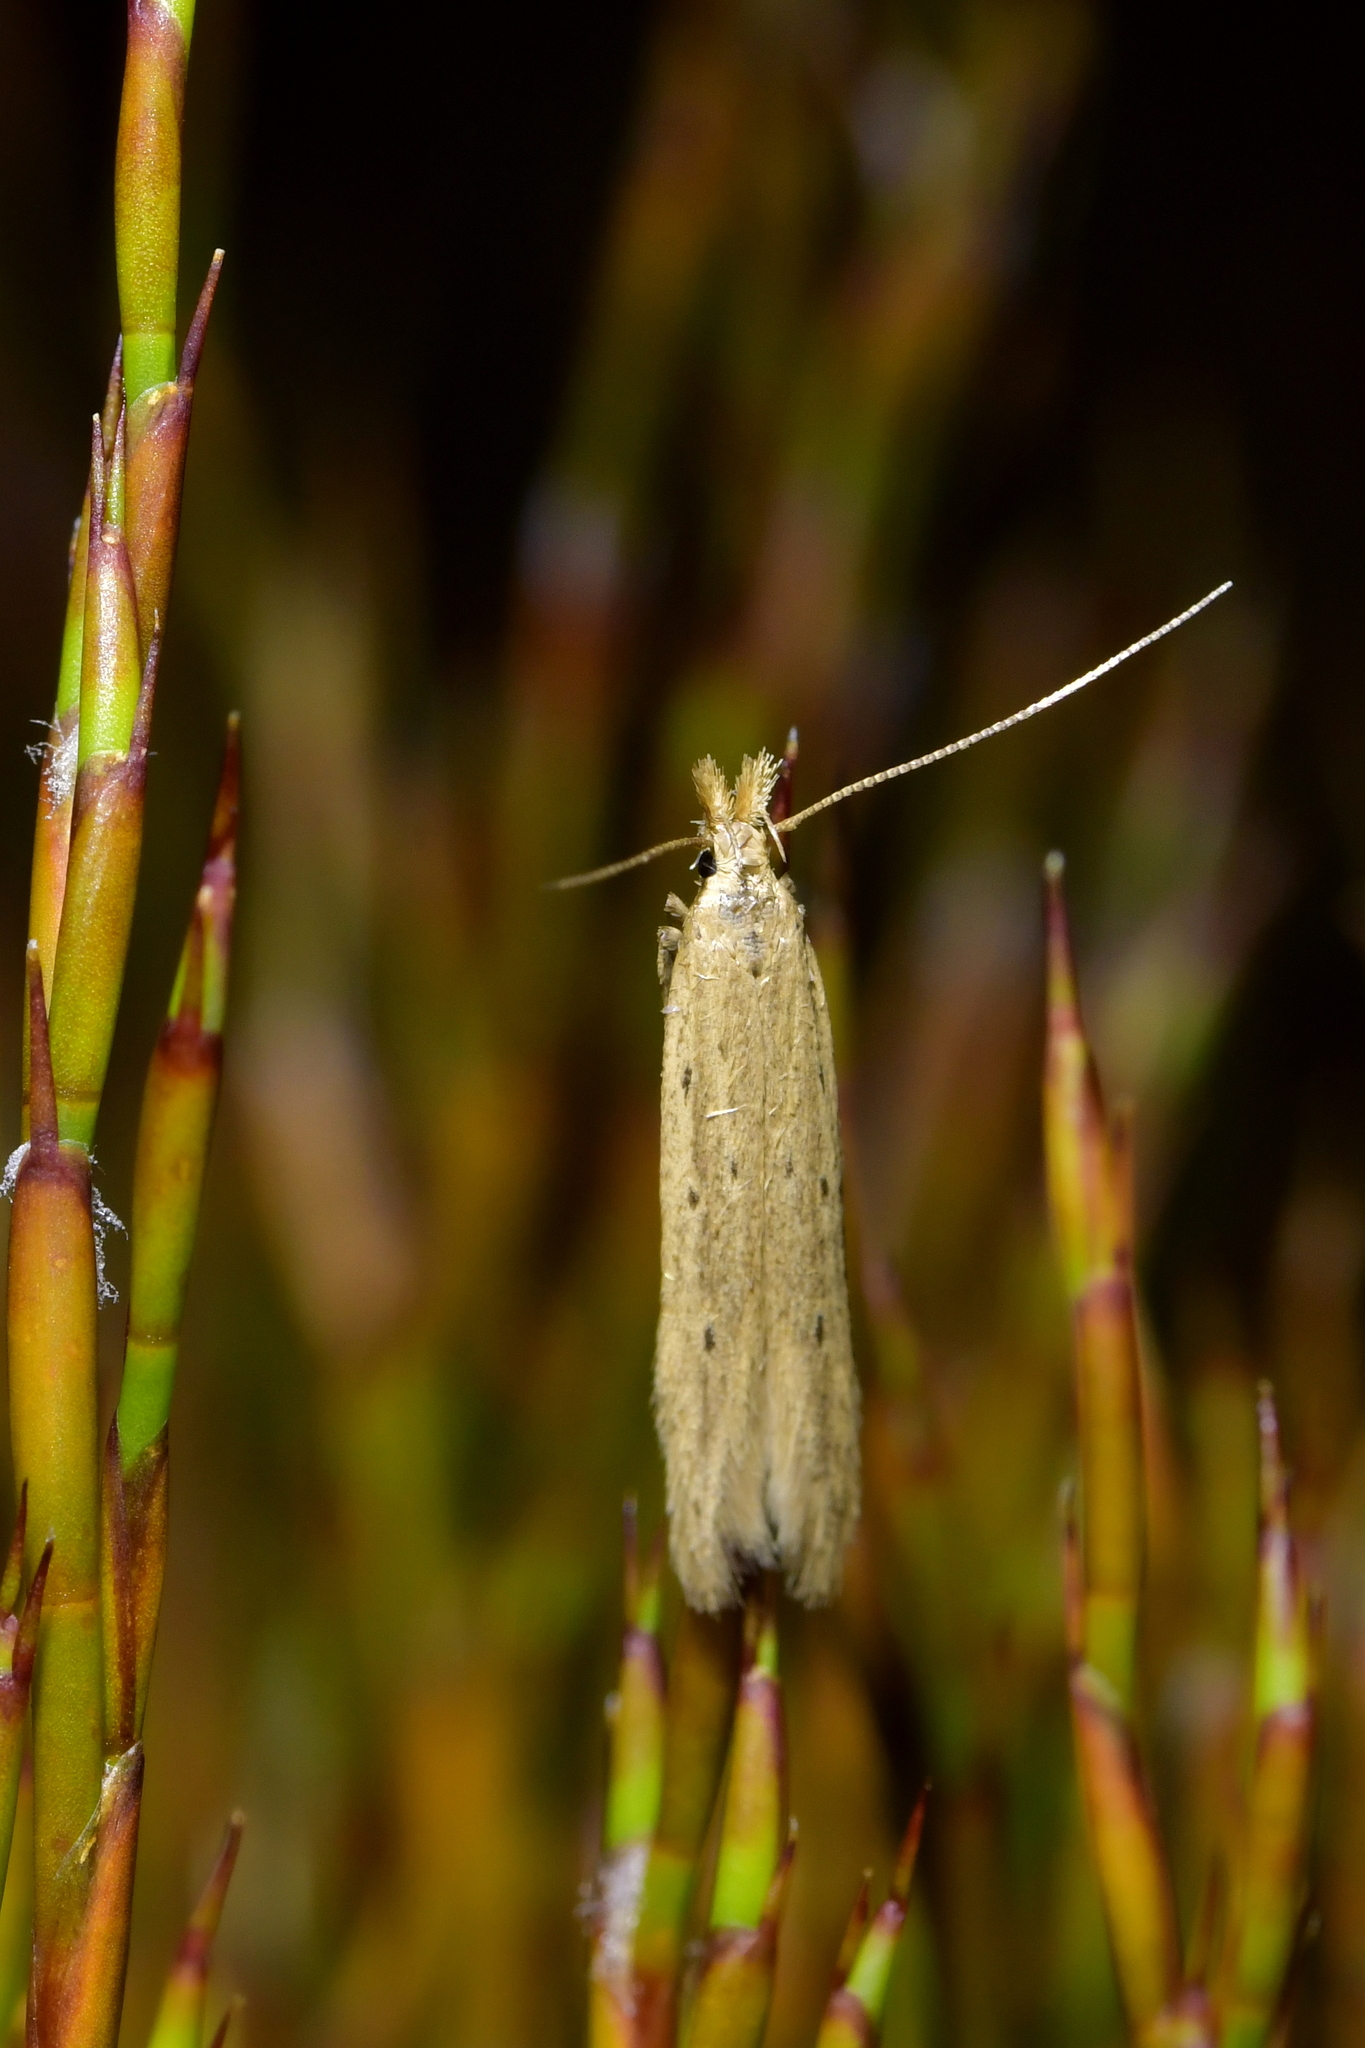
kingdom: Animalia
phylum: Arthropoda
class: Insecta
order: Lepidoptera
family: Gelechiidae
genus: Epiphthora
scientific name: Epiphthora calamogonus
